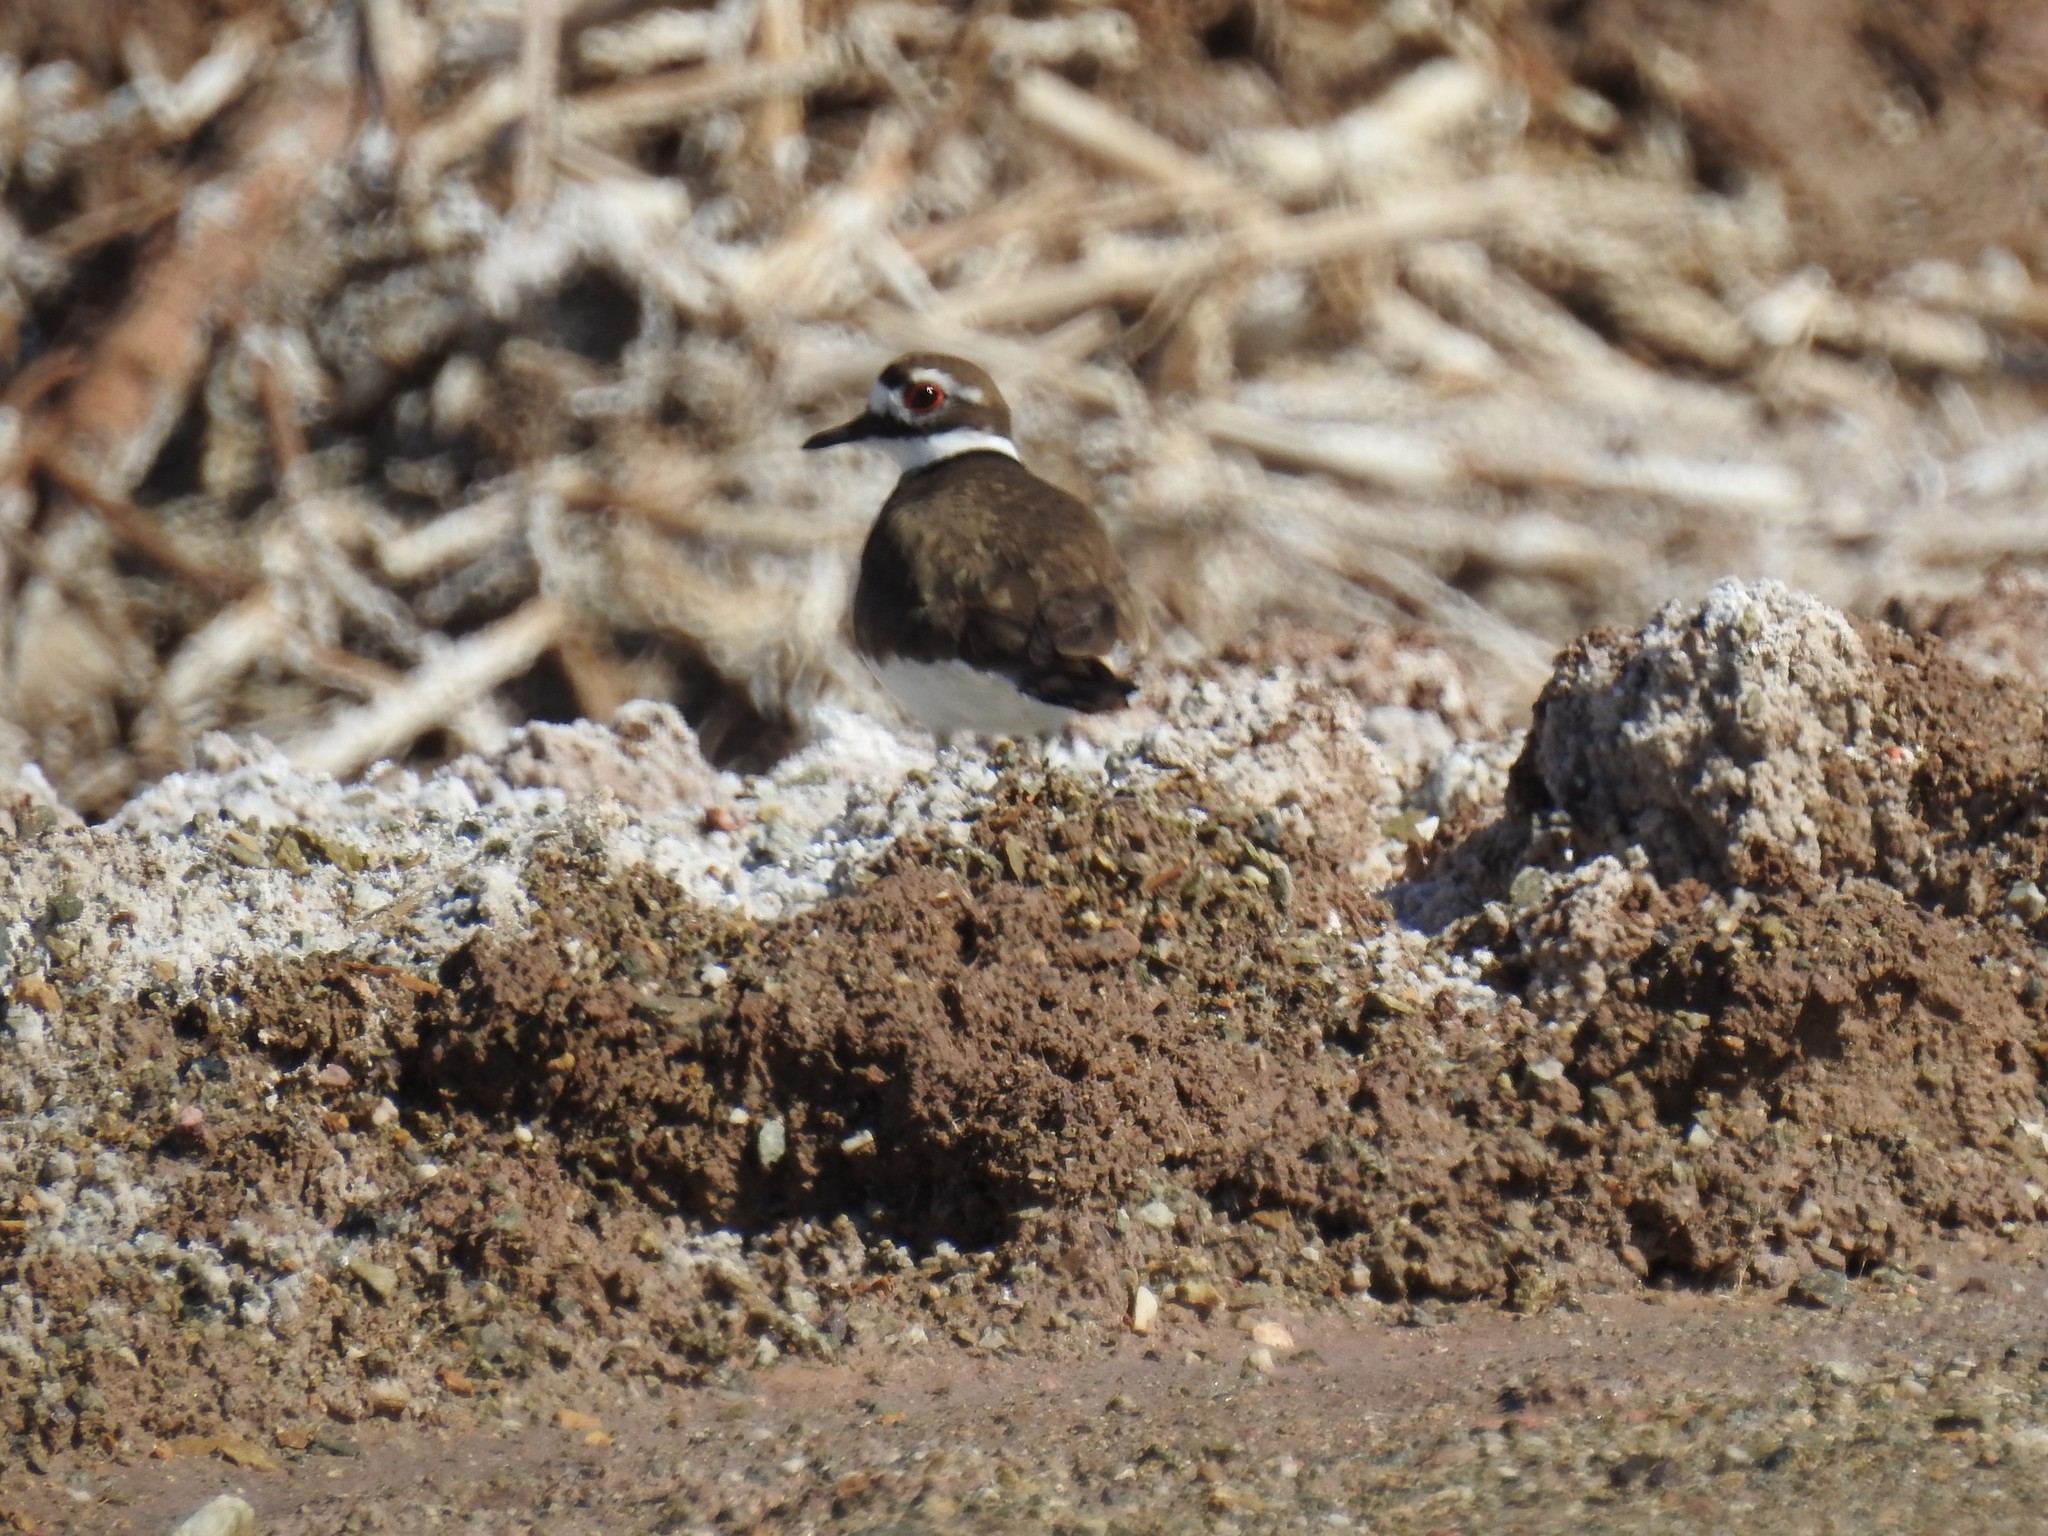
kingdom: Animalia
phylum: Chordata
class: Aves
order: Charadriiformes
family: Charadriidae
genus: Charadrius
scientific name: Charadrius vociferus
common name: Killdeer
